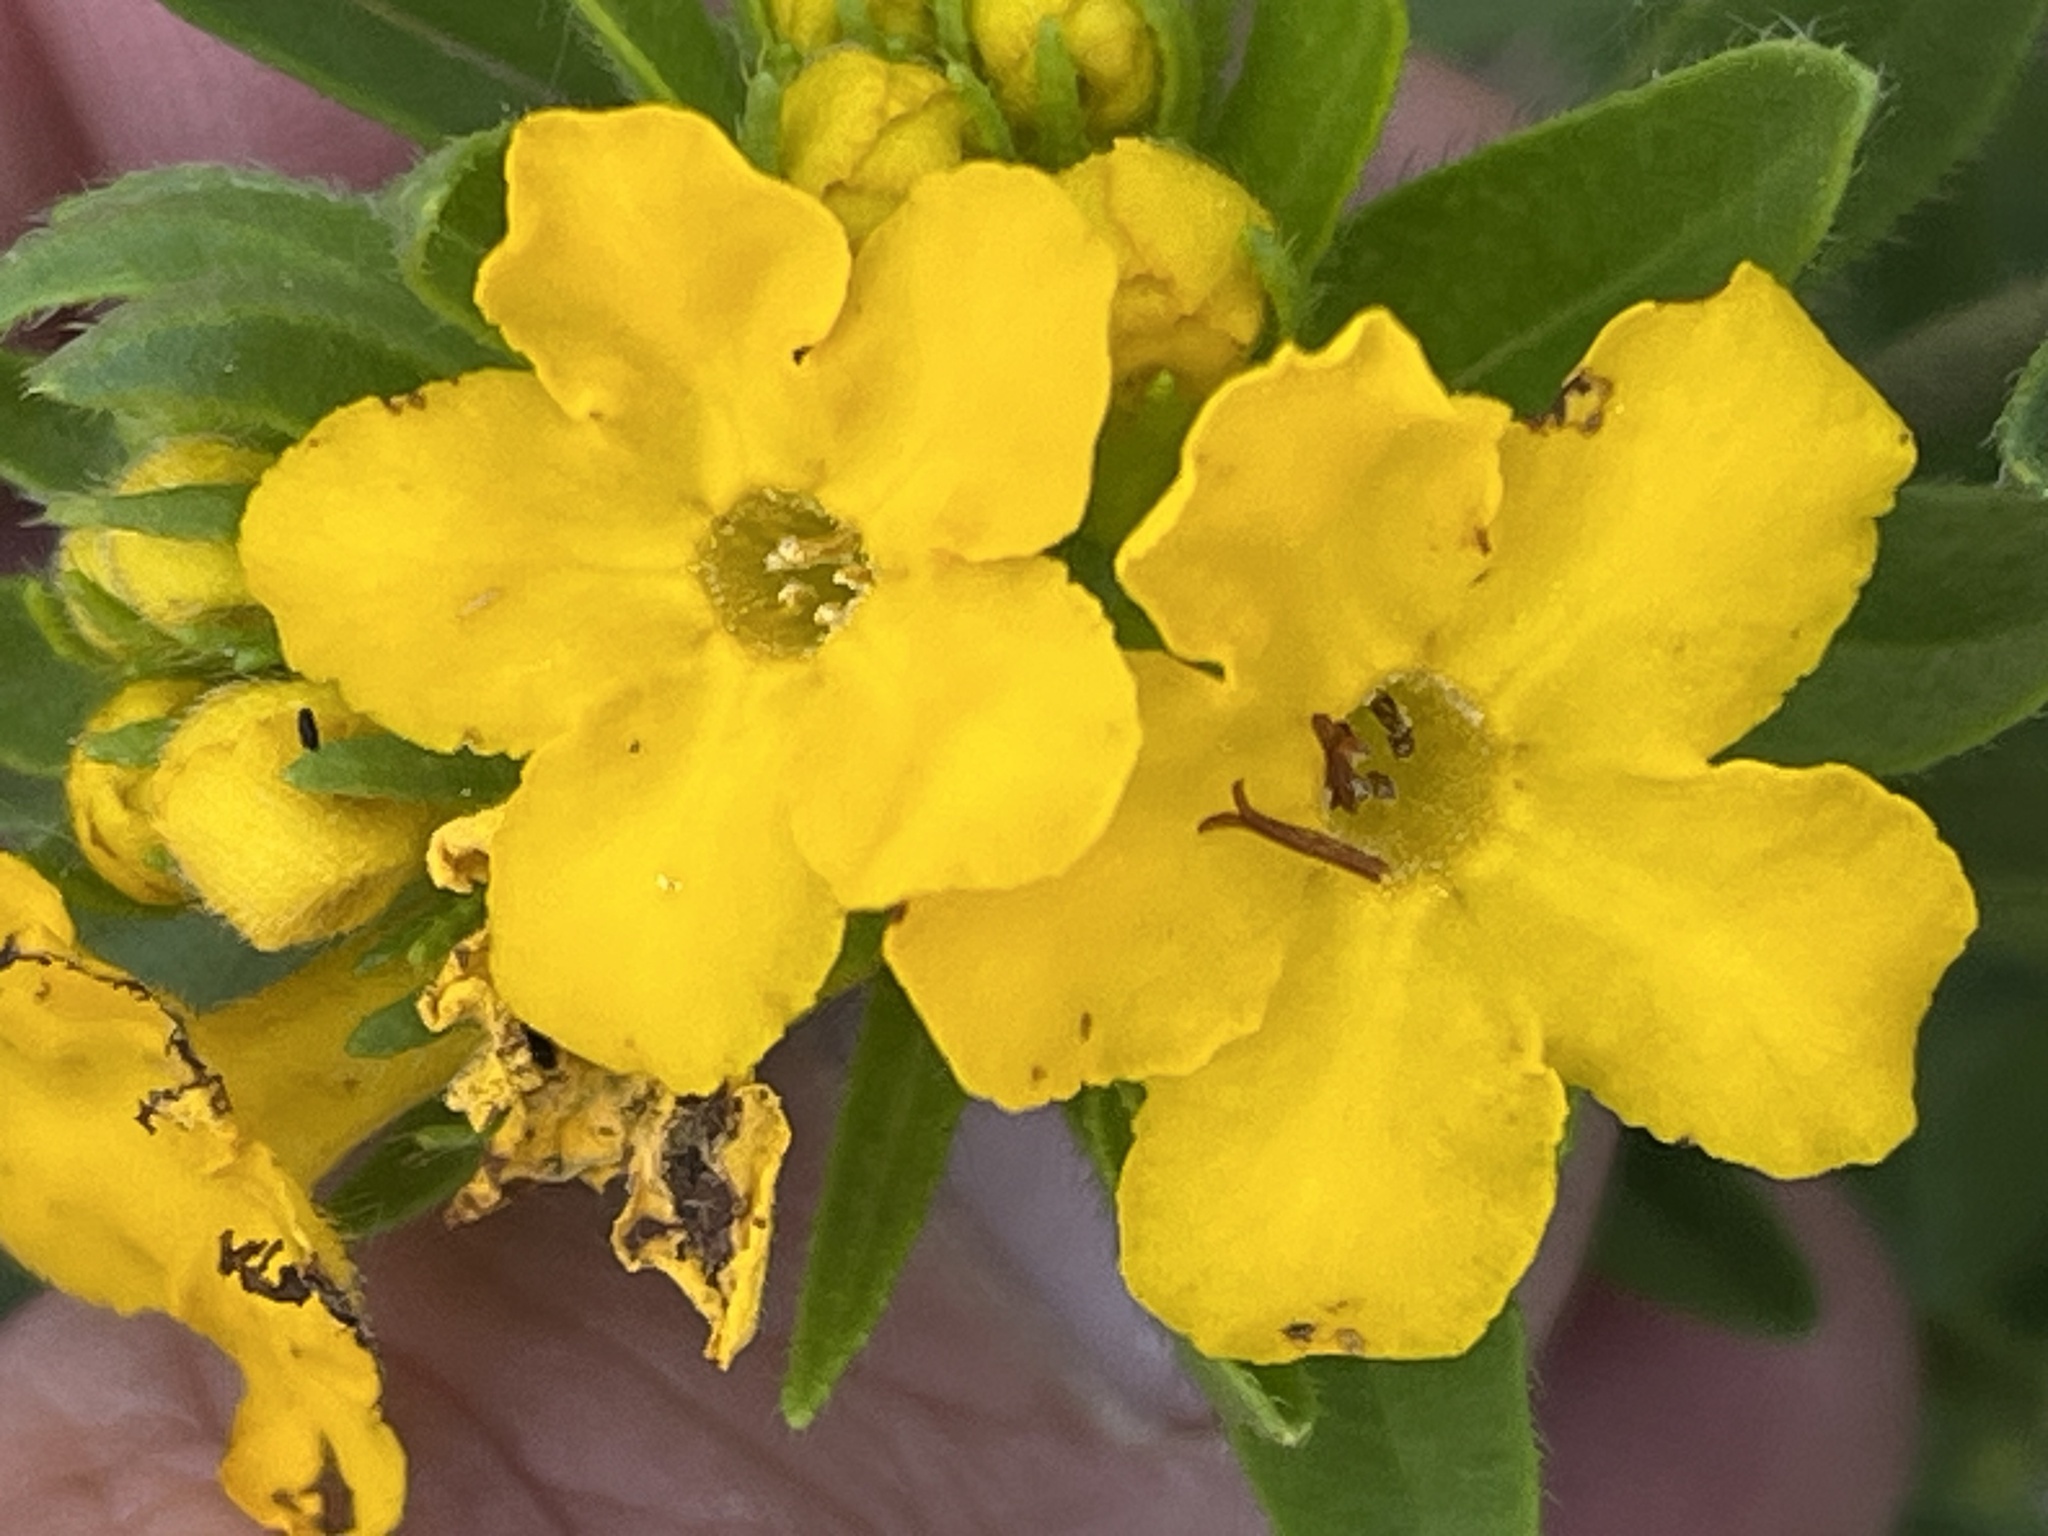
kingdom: Plantae
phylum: Tracheophyta
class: Magnoliopsida
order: Boraginales
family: Boraginaceae
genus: Lithospermum
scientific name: Lithospermum caroliniense
